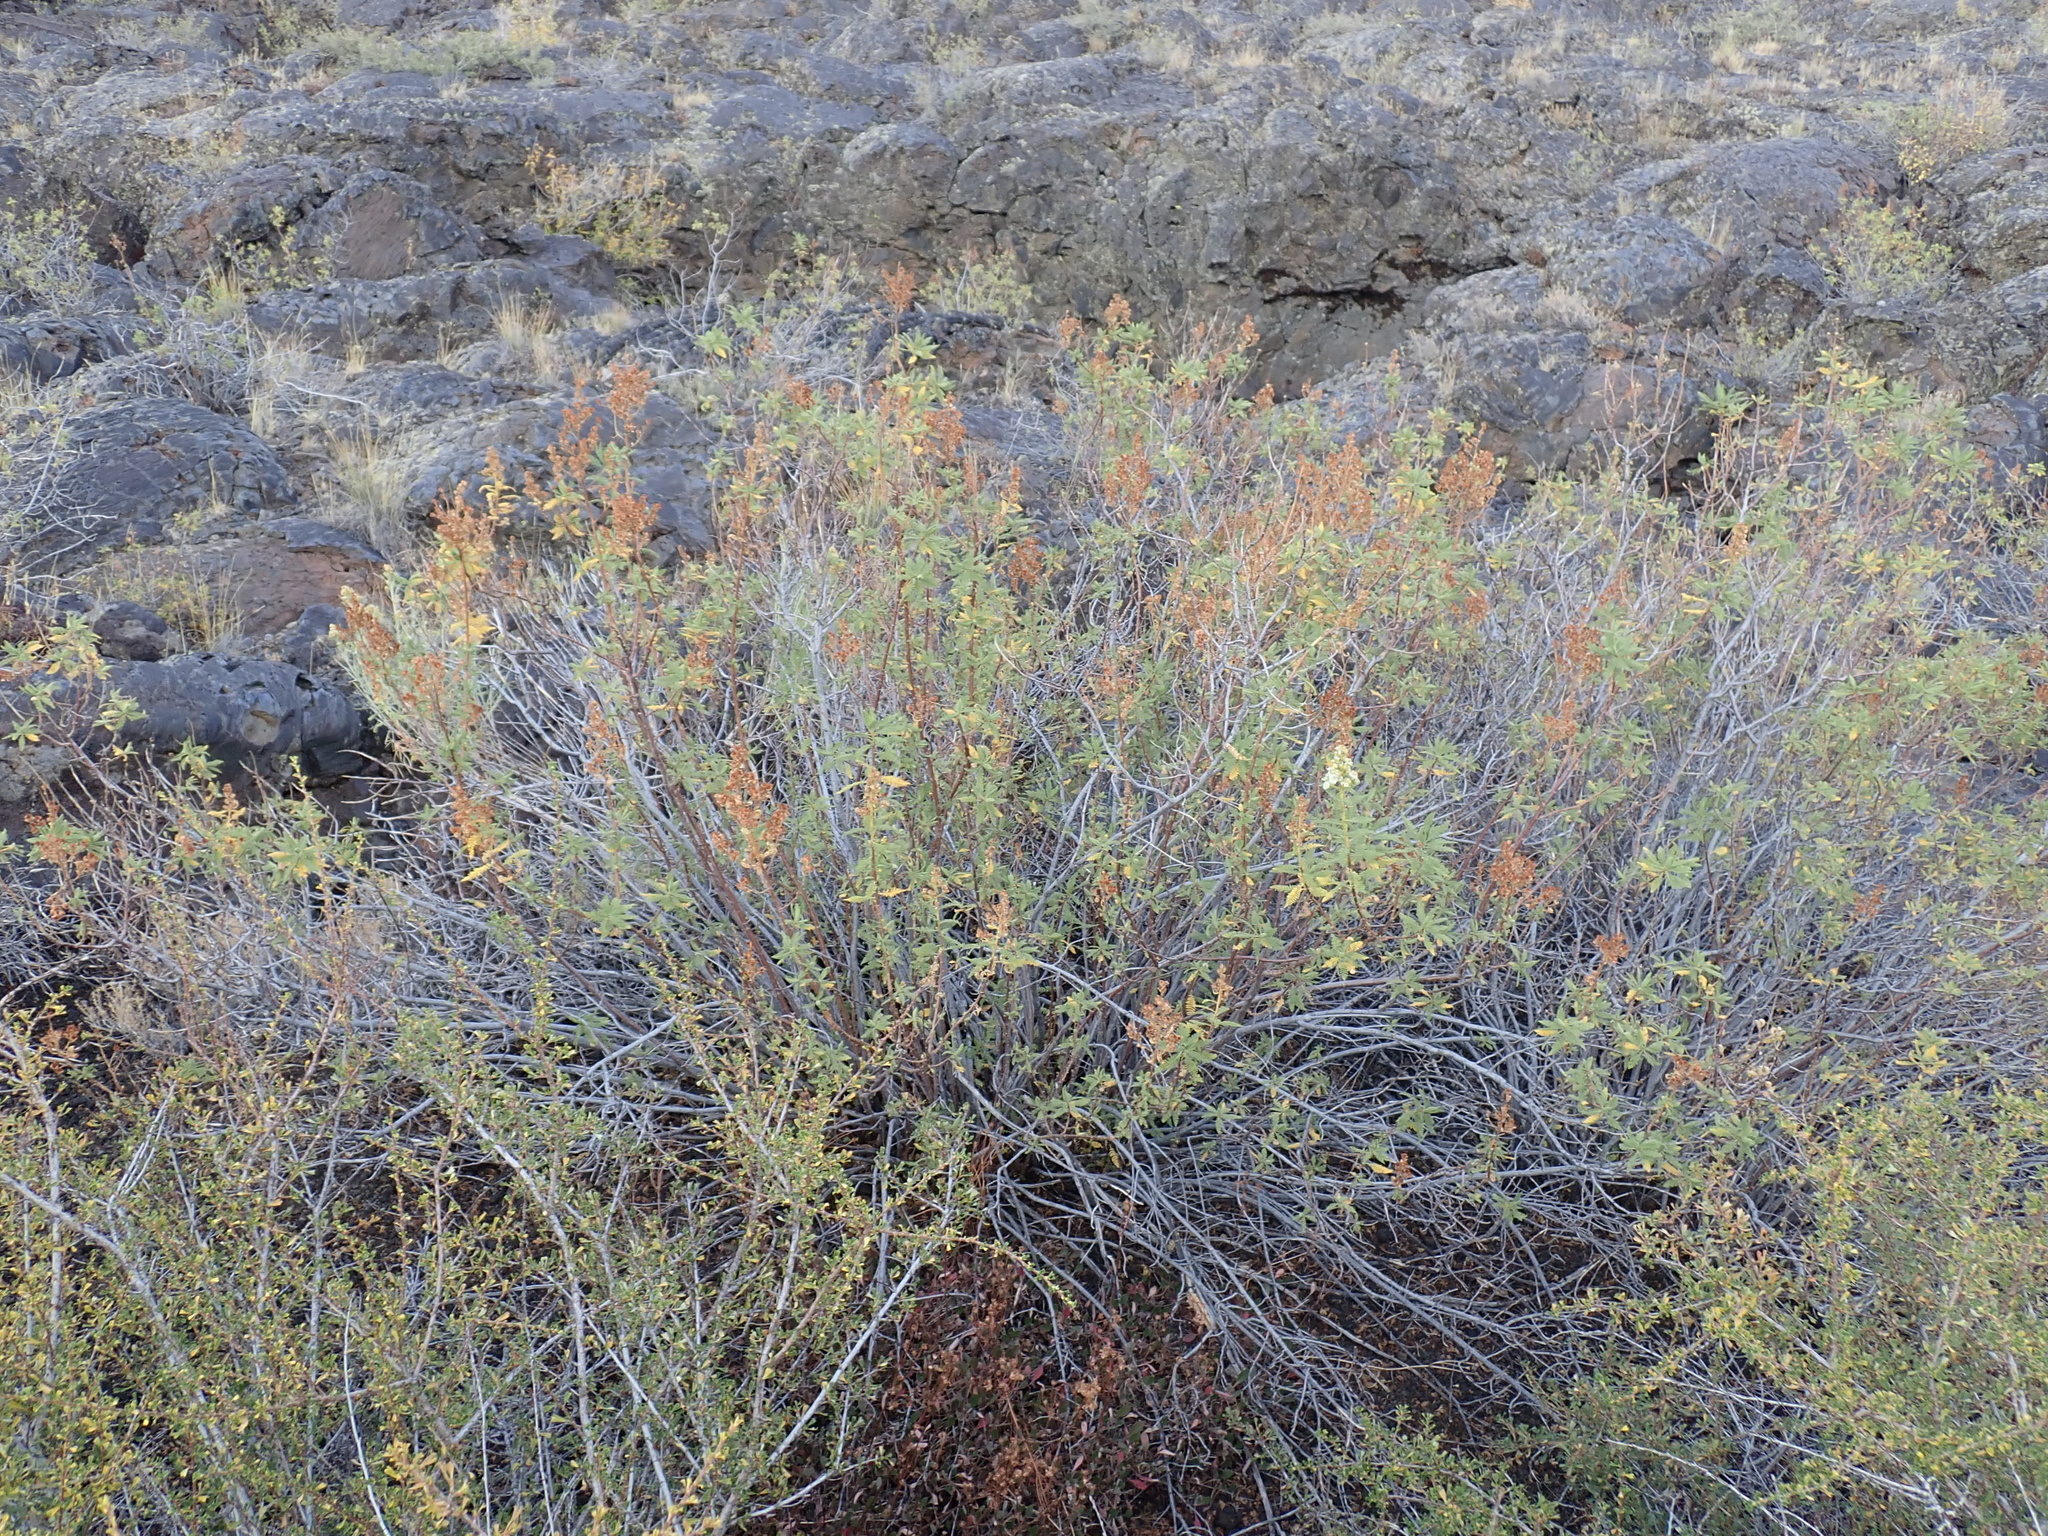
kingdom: Plantae
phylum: Tracheophyta
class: Magnoliopsida
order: Rosales
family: Rosaceae
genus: Chamaebatiaria
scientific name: Chamaebatiaria millefolium
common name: Fernbush
